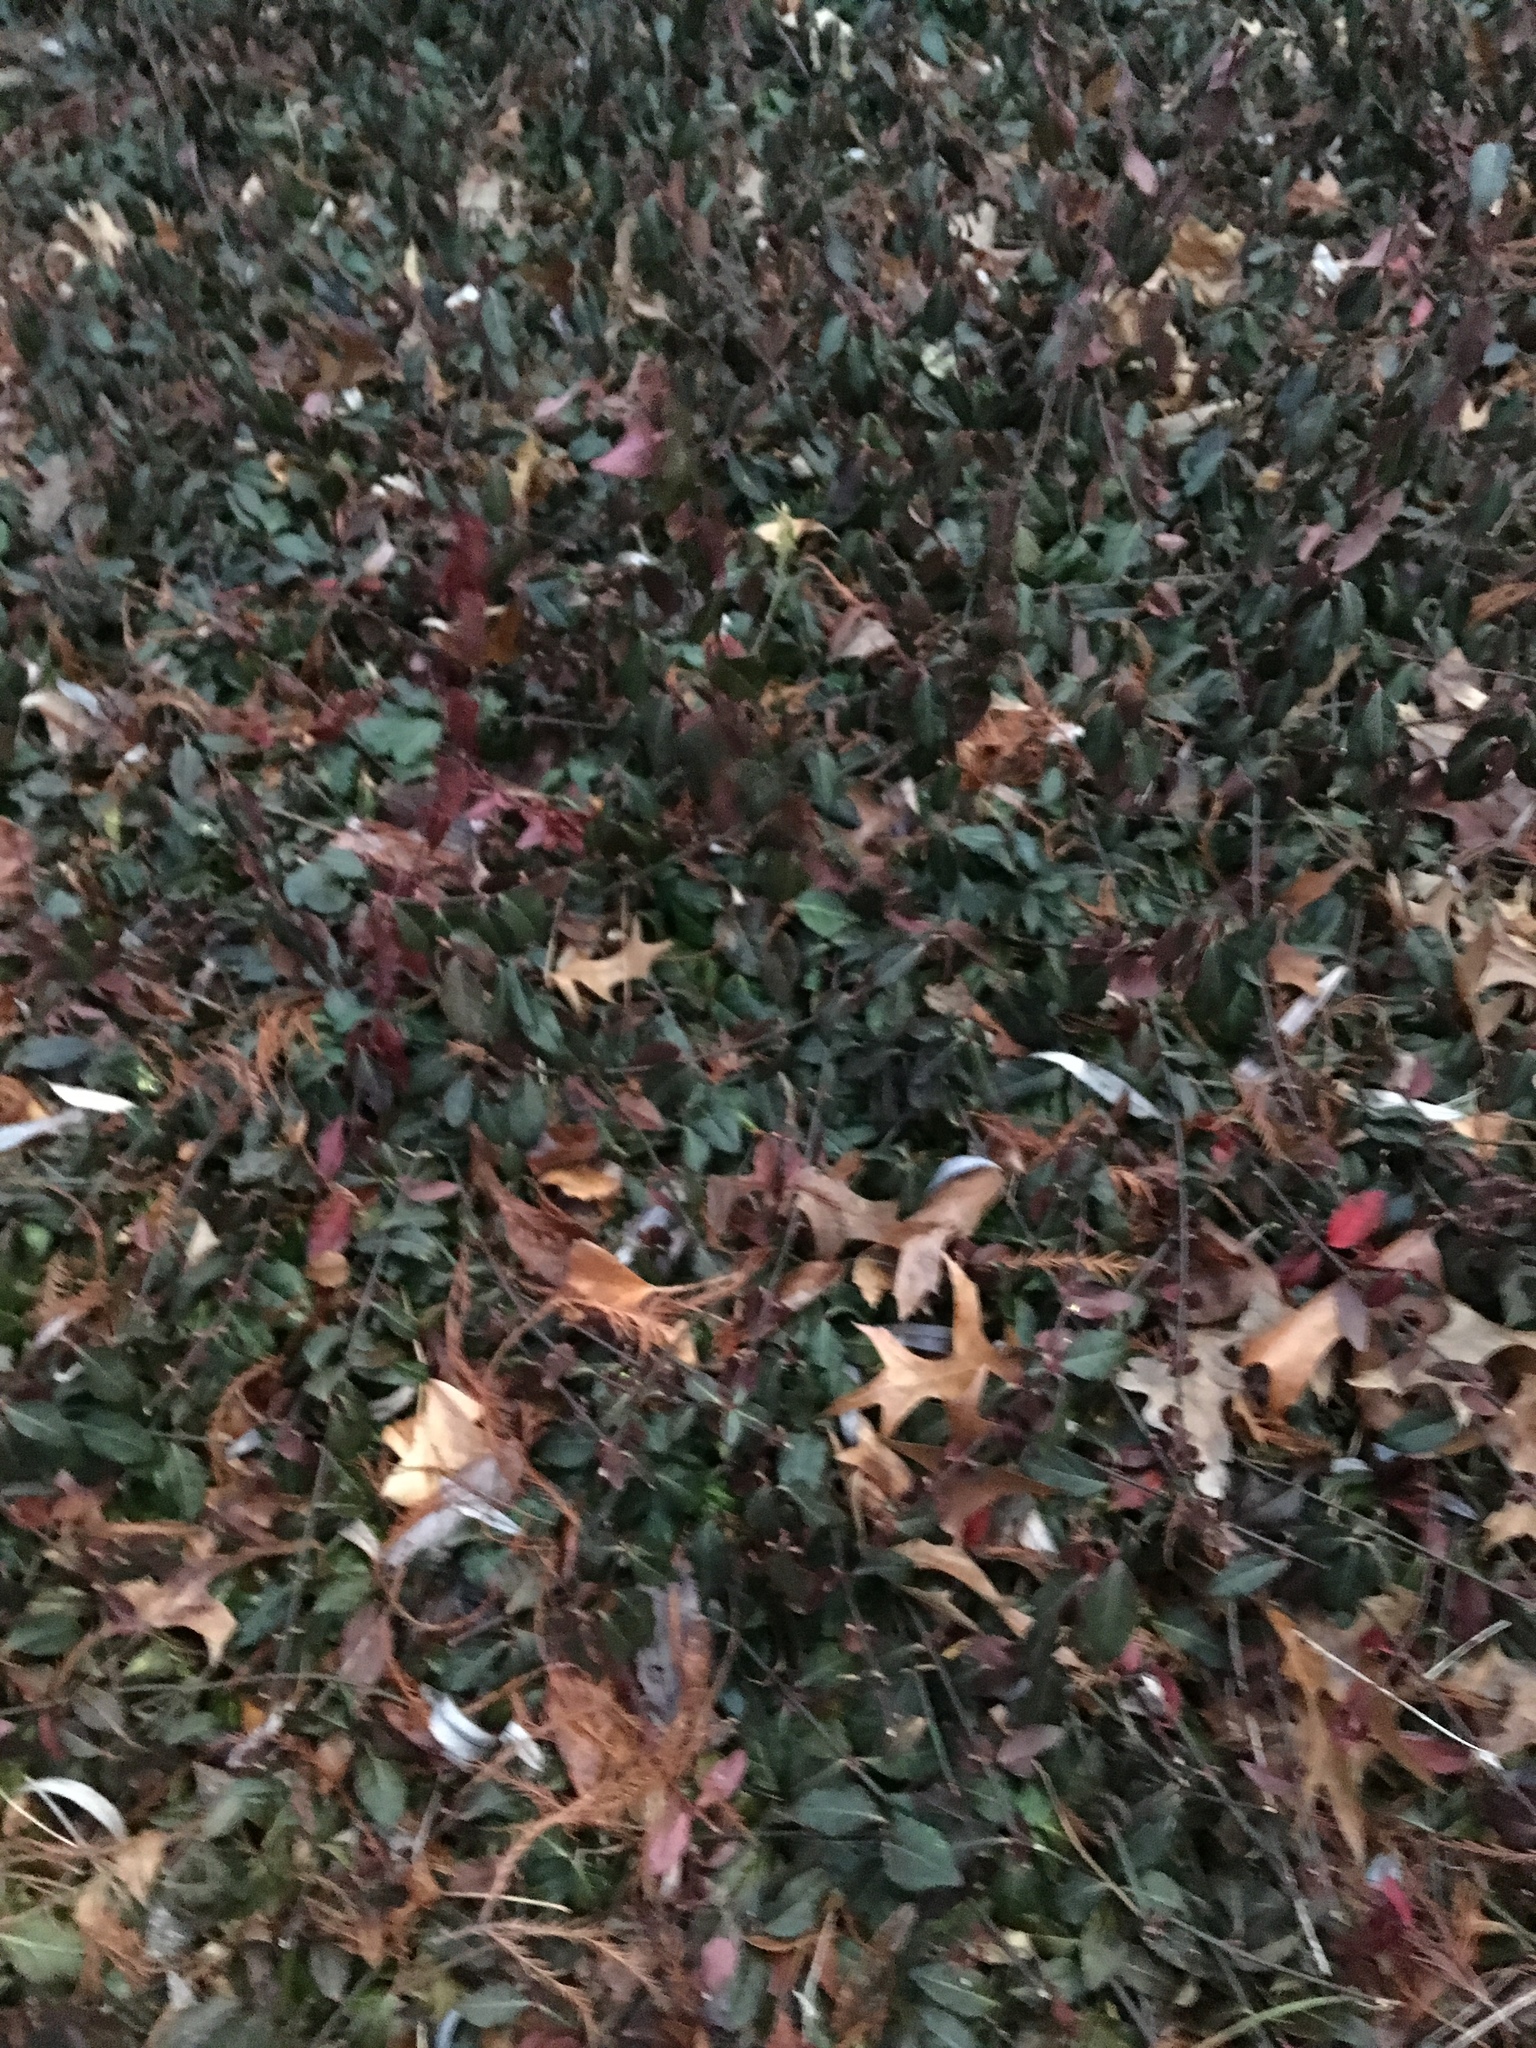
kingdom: Plantae
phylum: Tracheophyta
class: Magnoliopsida
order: Celastrales
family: Celastraceae
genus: Euonymus
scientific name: Euonymus fortunei
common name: Climbing euonymus
